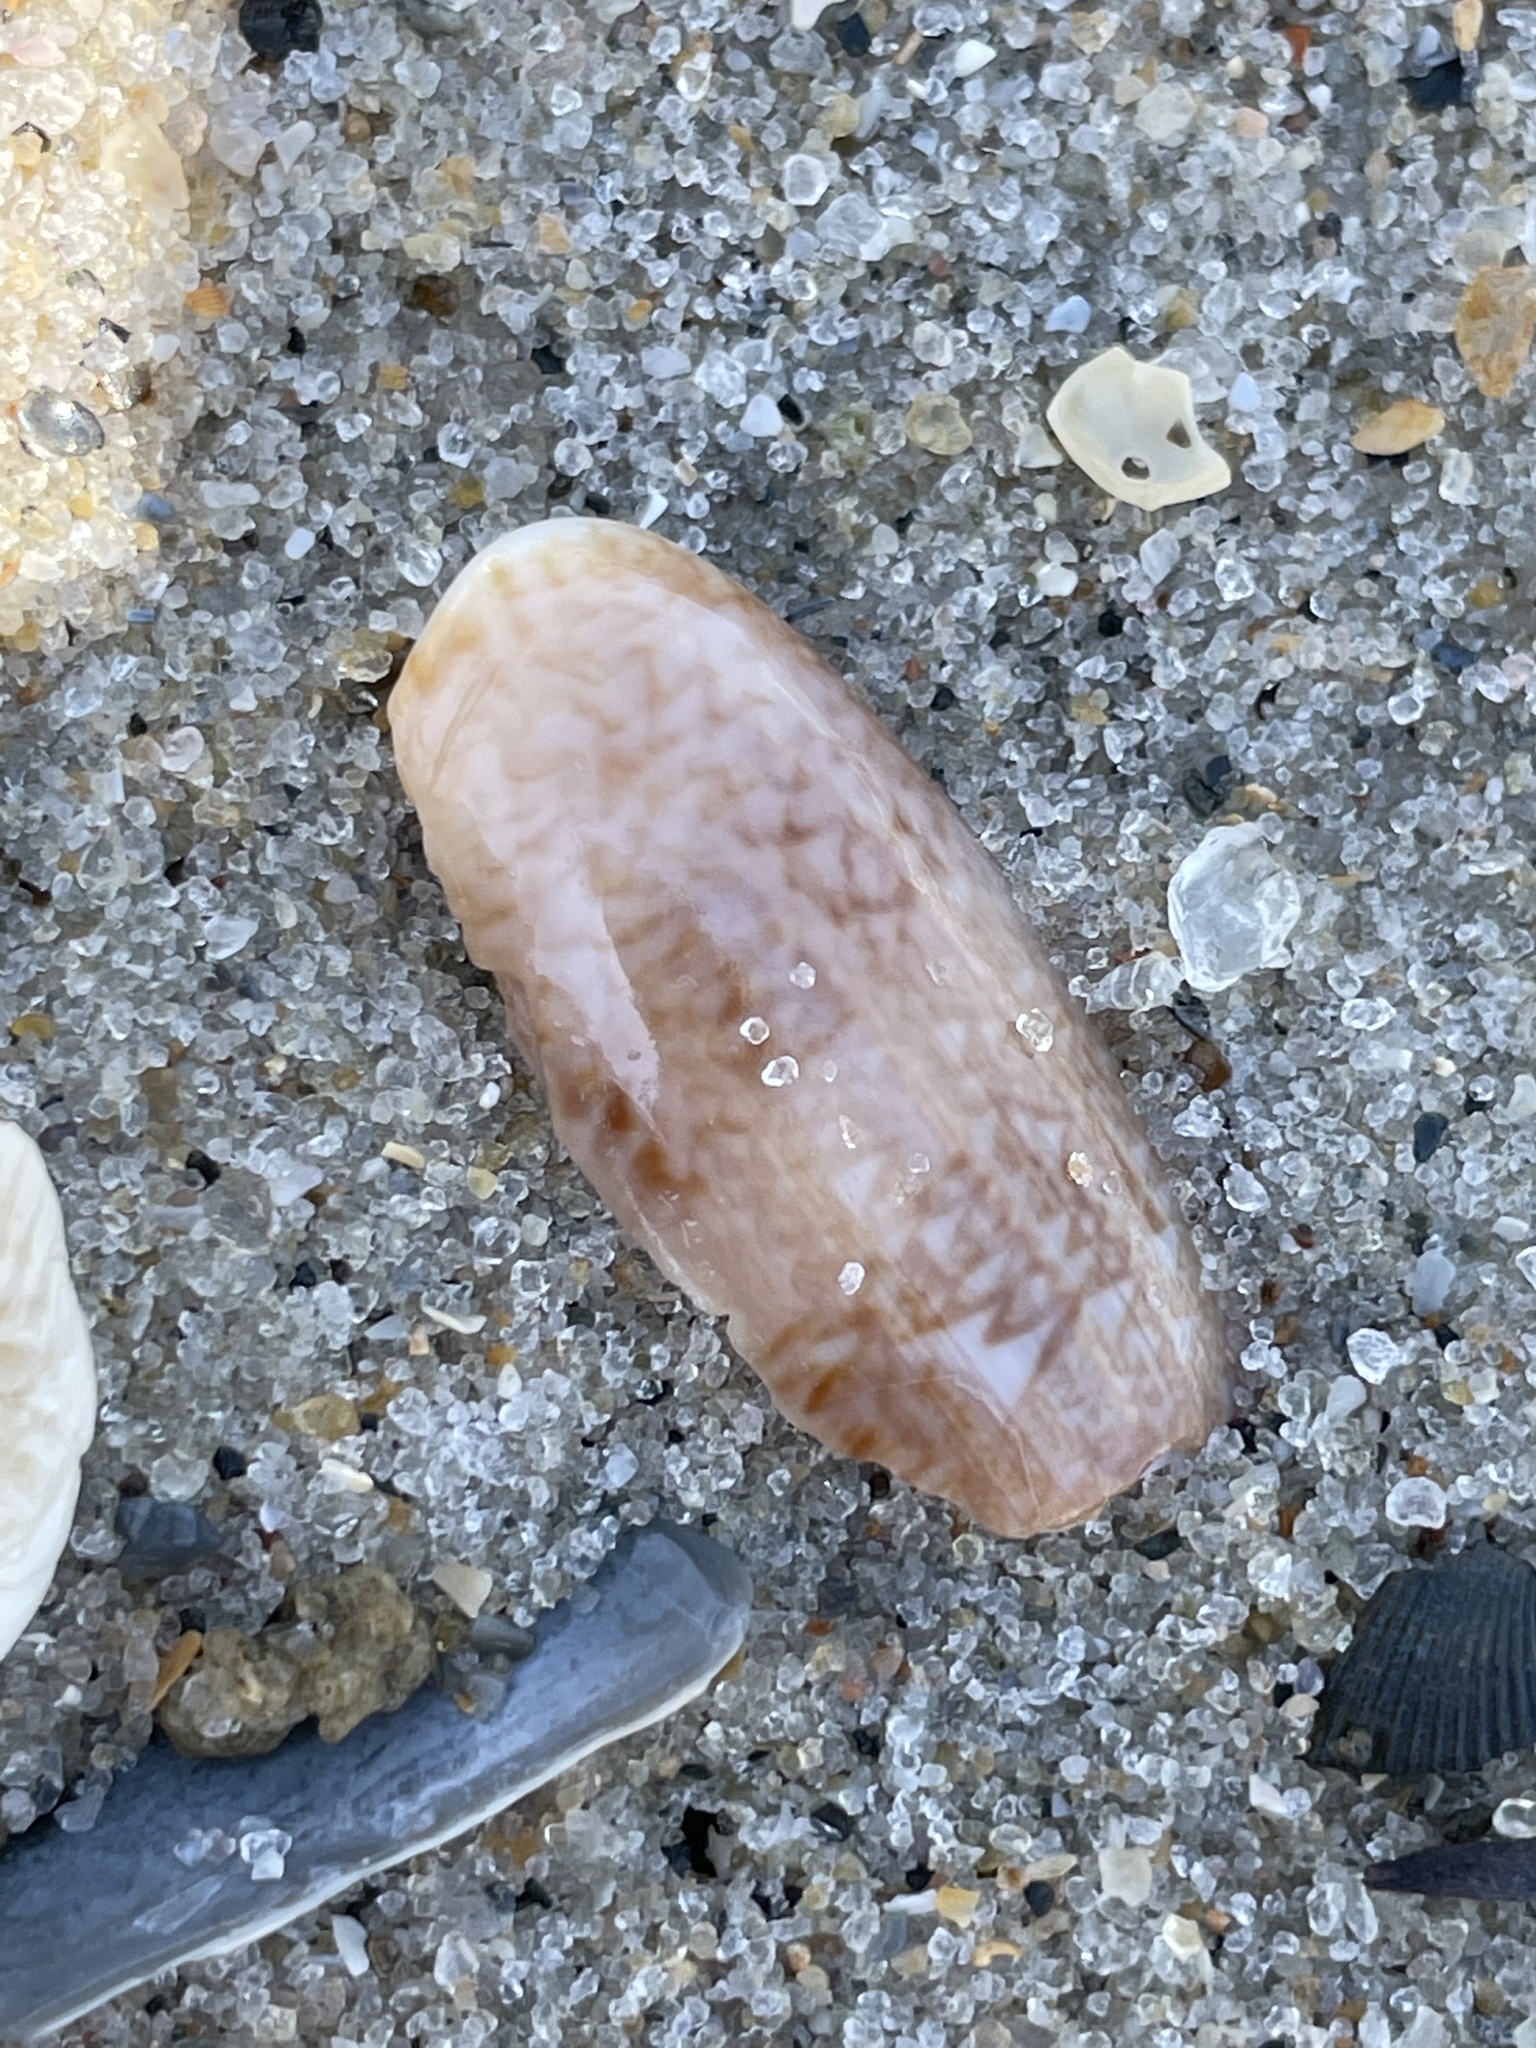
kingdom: Animalia
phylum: Mollusca
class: Gastropoda
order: Neogastropoda
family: Olividae
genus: Oliva
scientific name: Oliva sayana
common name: Lettered olive
